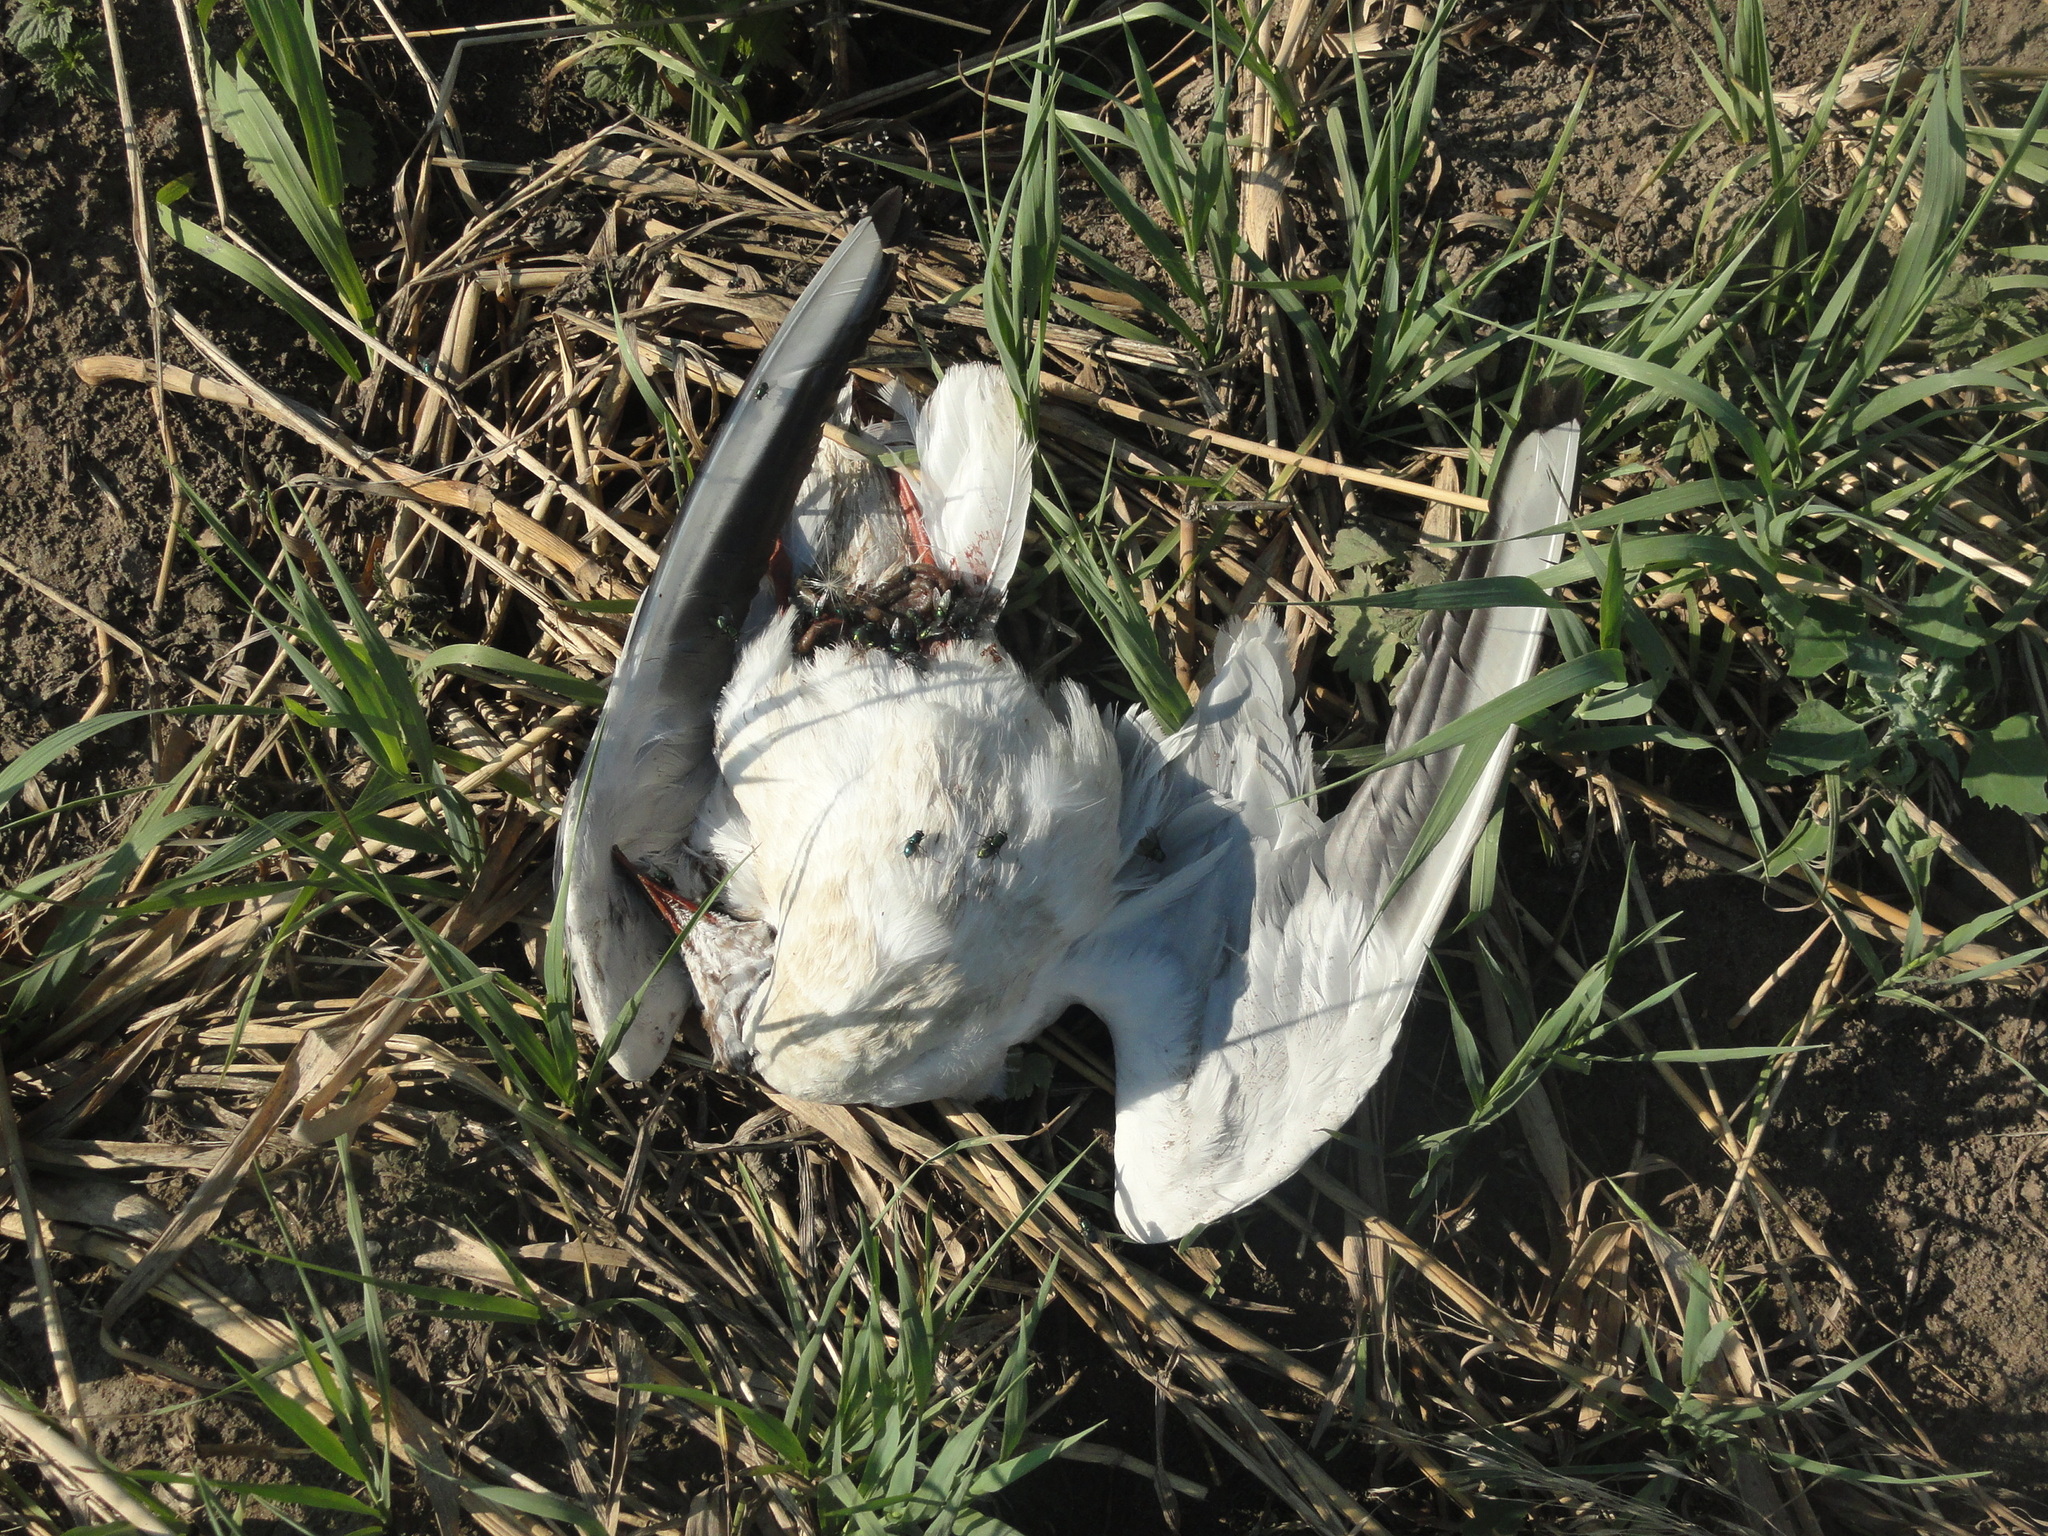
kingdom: Animalia
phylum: Chordata
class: Aves
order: Charadriiformes
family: Laridae
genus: Chroicocephalus
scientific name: Chroicocephalus ridibundus
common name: Black-headed gull
